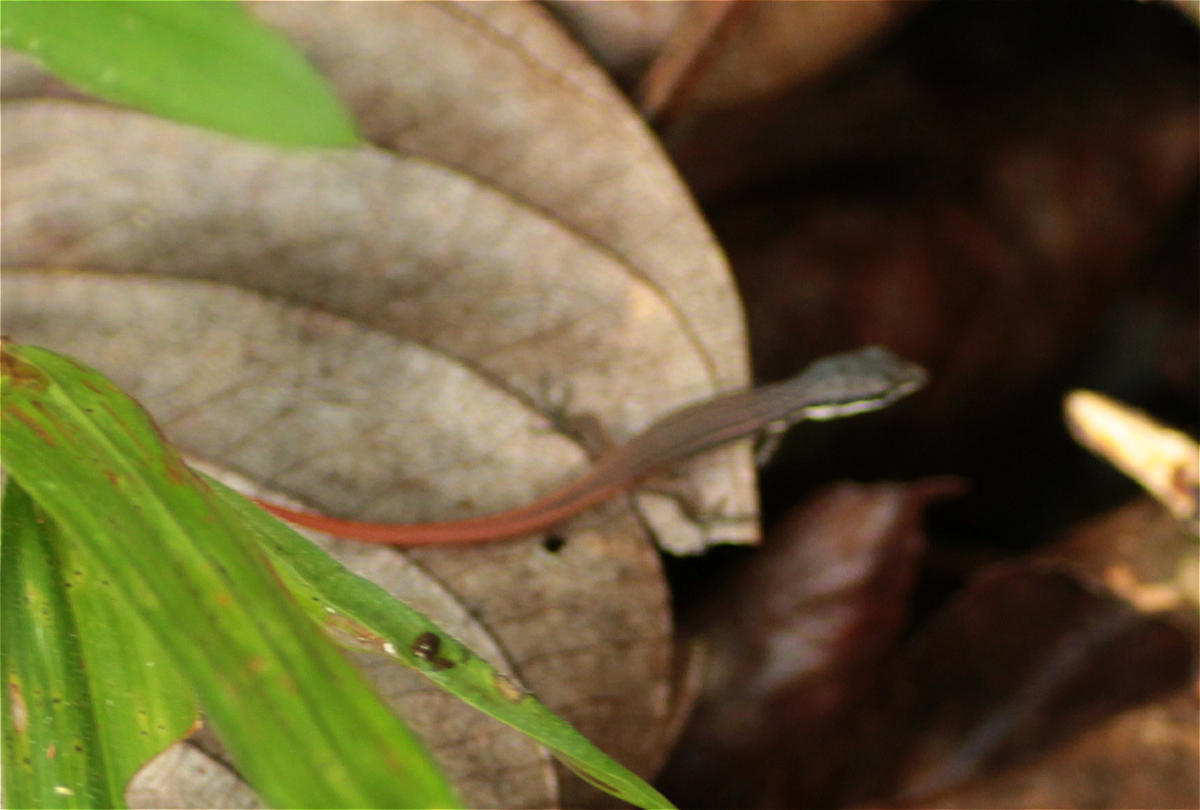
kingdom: Animalia
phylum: Chordata
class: Squamata
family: Gymnophthalmidae
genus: Cercosaura
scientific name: Cercosaura
